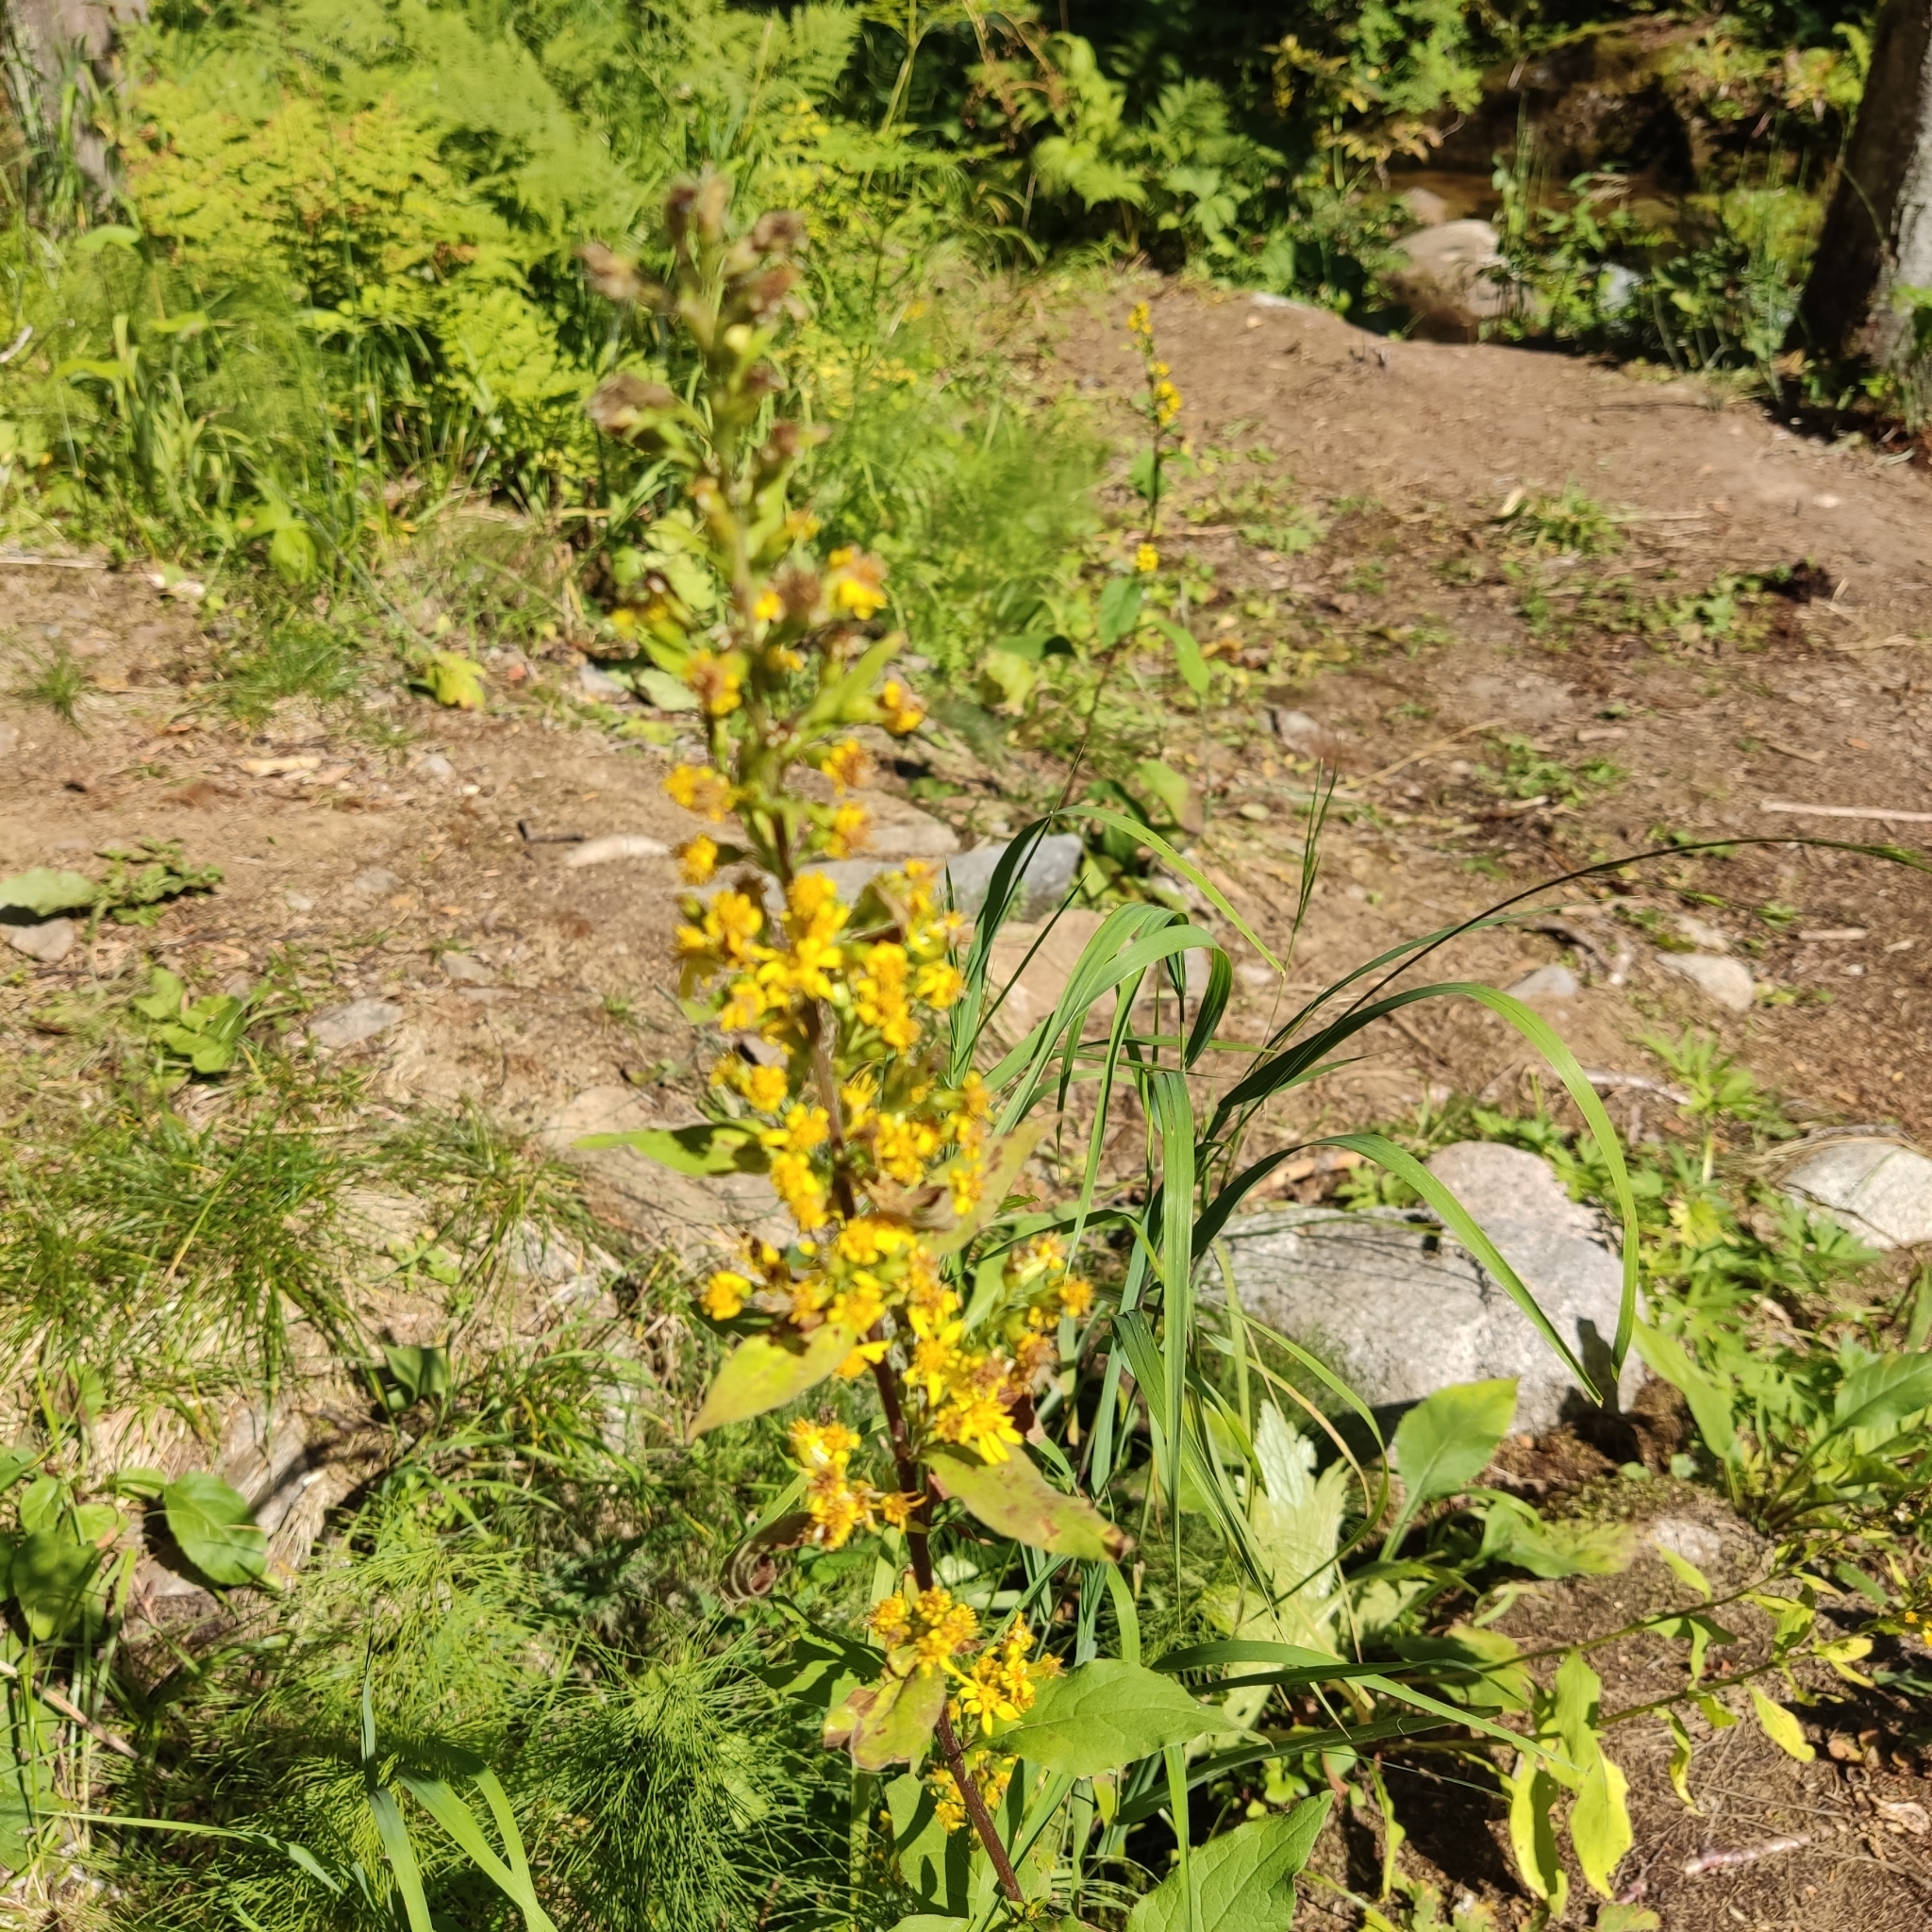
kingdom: Plantae
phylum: Tracheophyta
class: Magnoliopsida
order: Asterales
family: Asteraceae
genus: Solidago
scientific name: Solidago virgaurea
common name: Goldenrod
